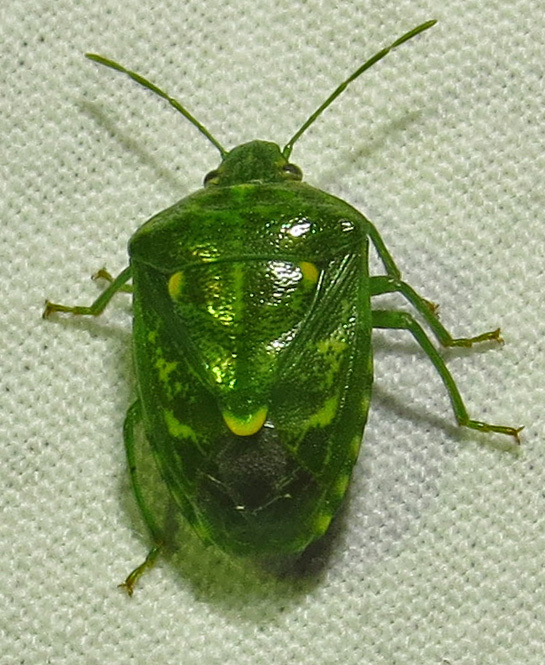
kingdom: Animalia
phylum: Arthropoda
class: Insecta
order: Hemiptera
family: Pentatomidae
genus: Banasa
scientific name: Banasa euchlora
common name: Cedar berry bug
